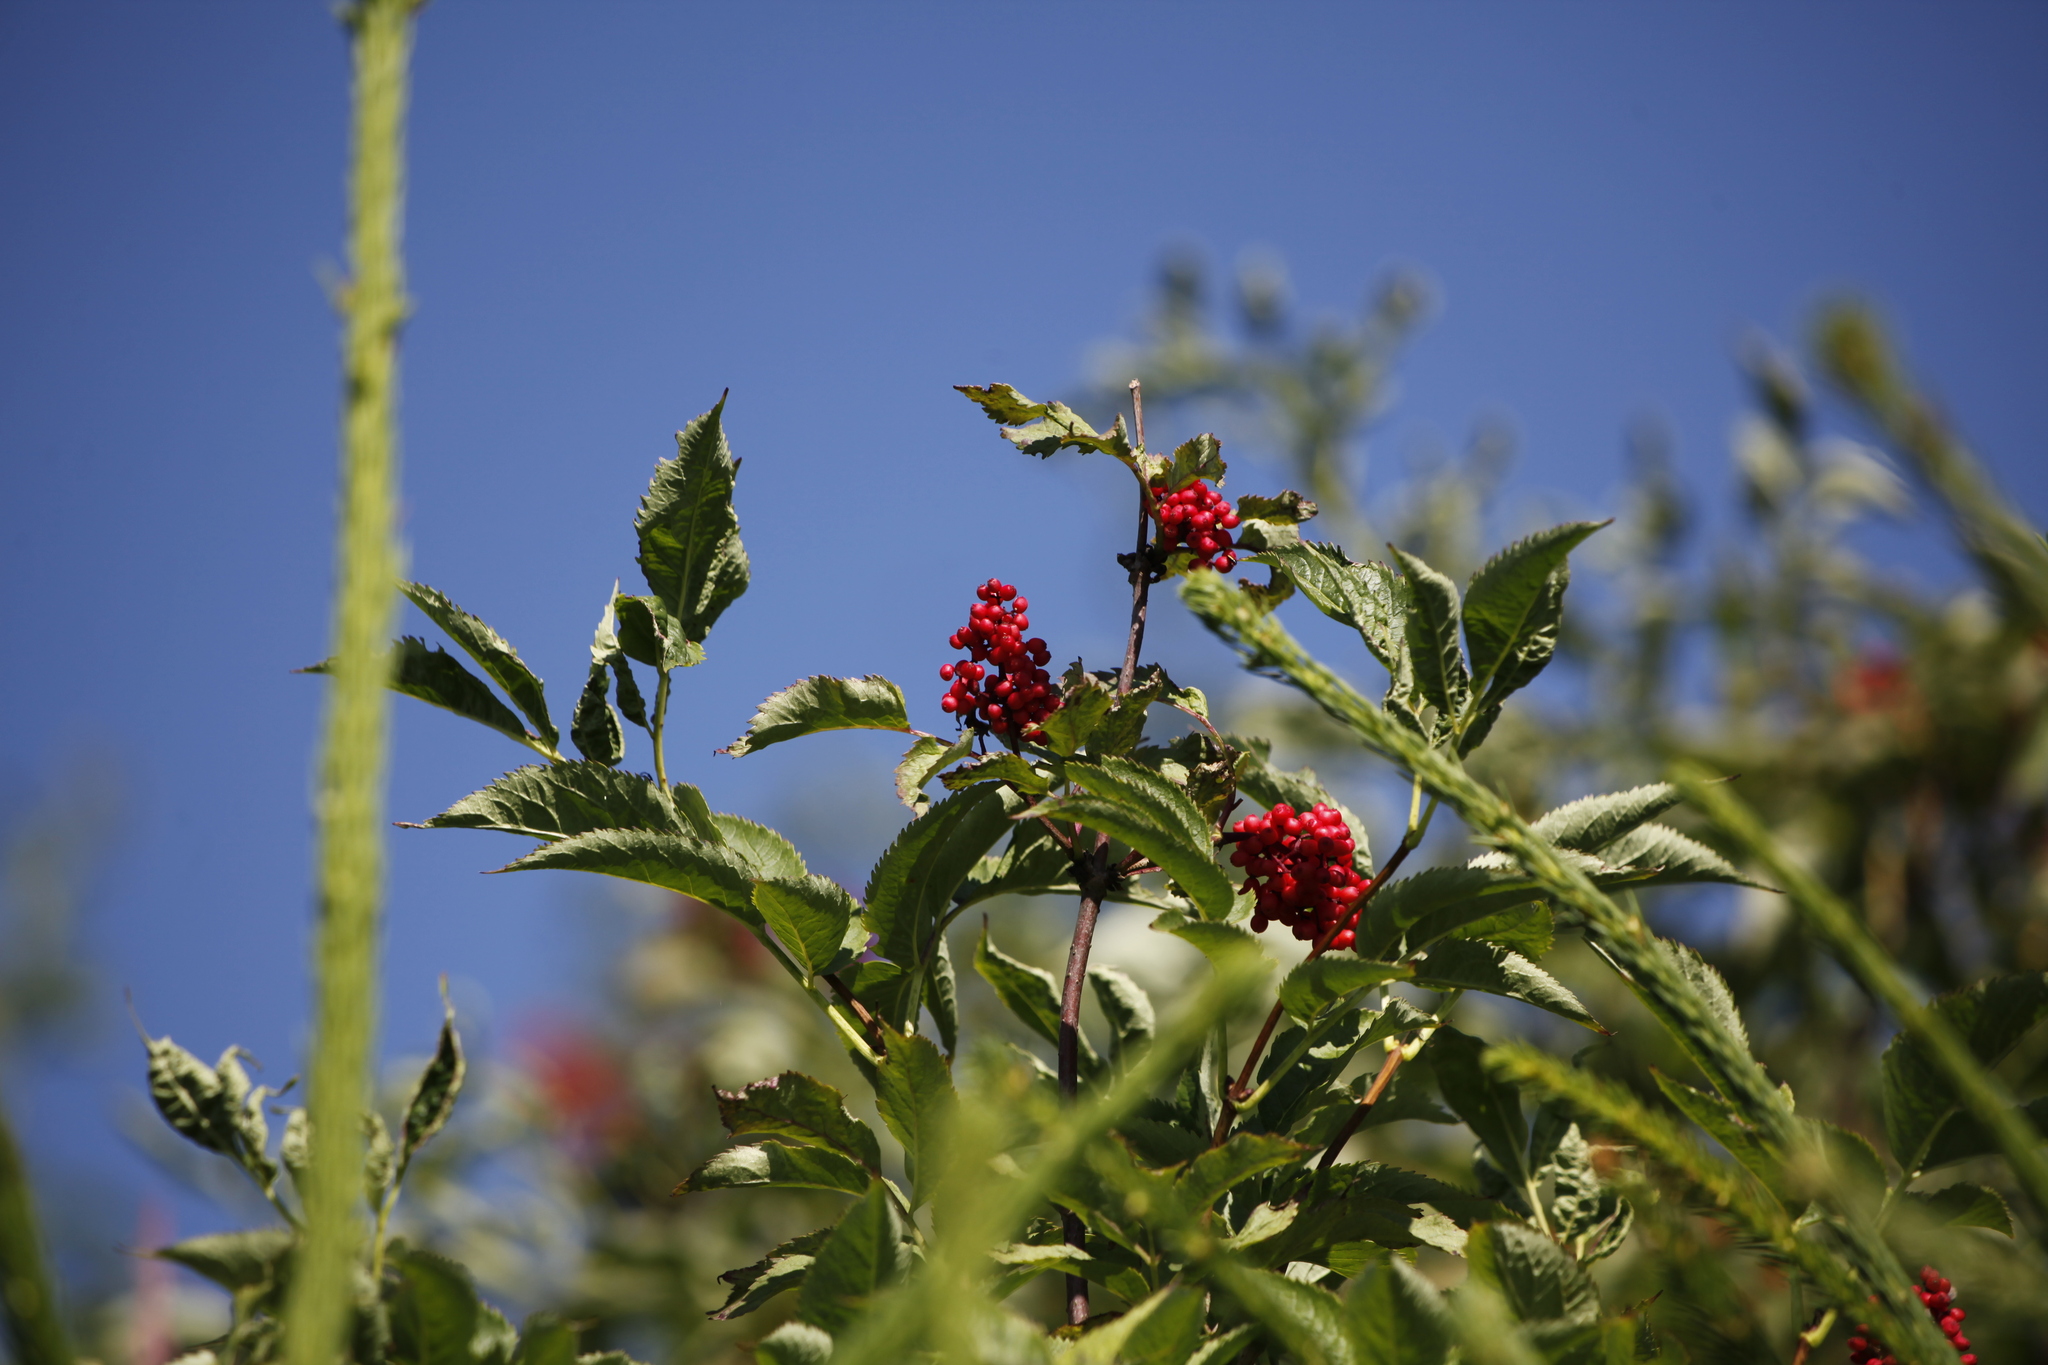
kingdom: Plantae
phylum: Tracheophyta
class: Magnoliopsida
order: Dipsacales
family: Viburnaceae
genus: Sambucus
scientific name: Sambucus racemosa
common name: Red-berried elder
